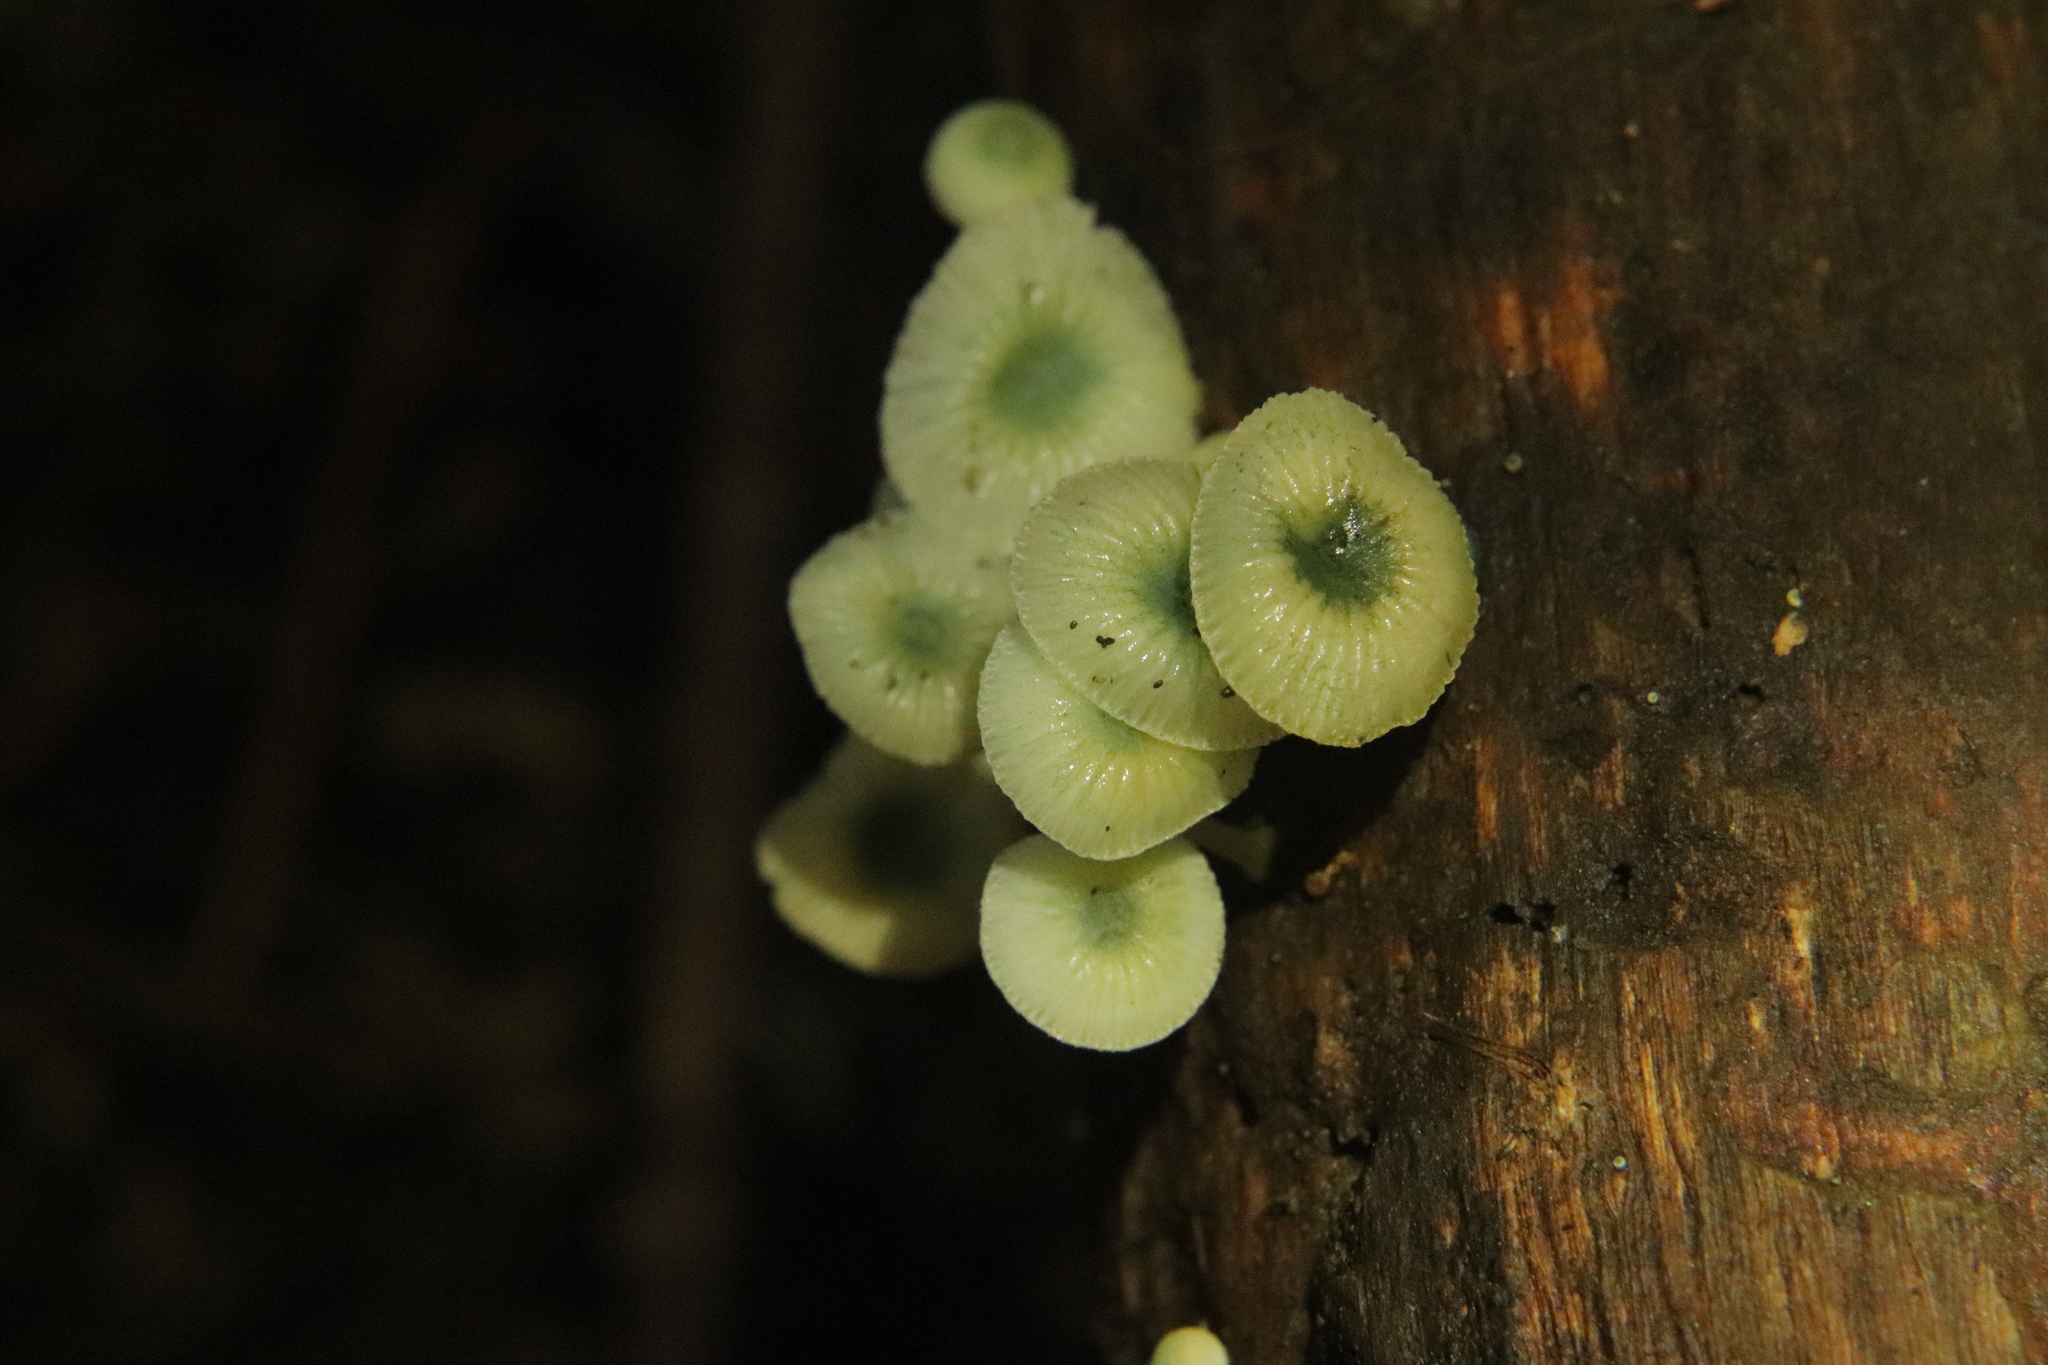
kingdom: Fungi
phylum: Basidiomycota
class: Agaricomycetes
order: Agaricales
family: Mycenaceae
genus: Mycena
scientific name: Mycena interrupta
